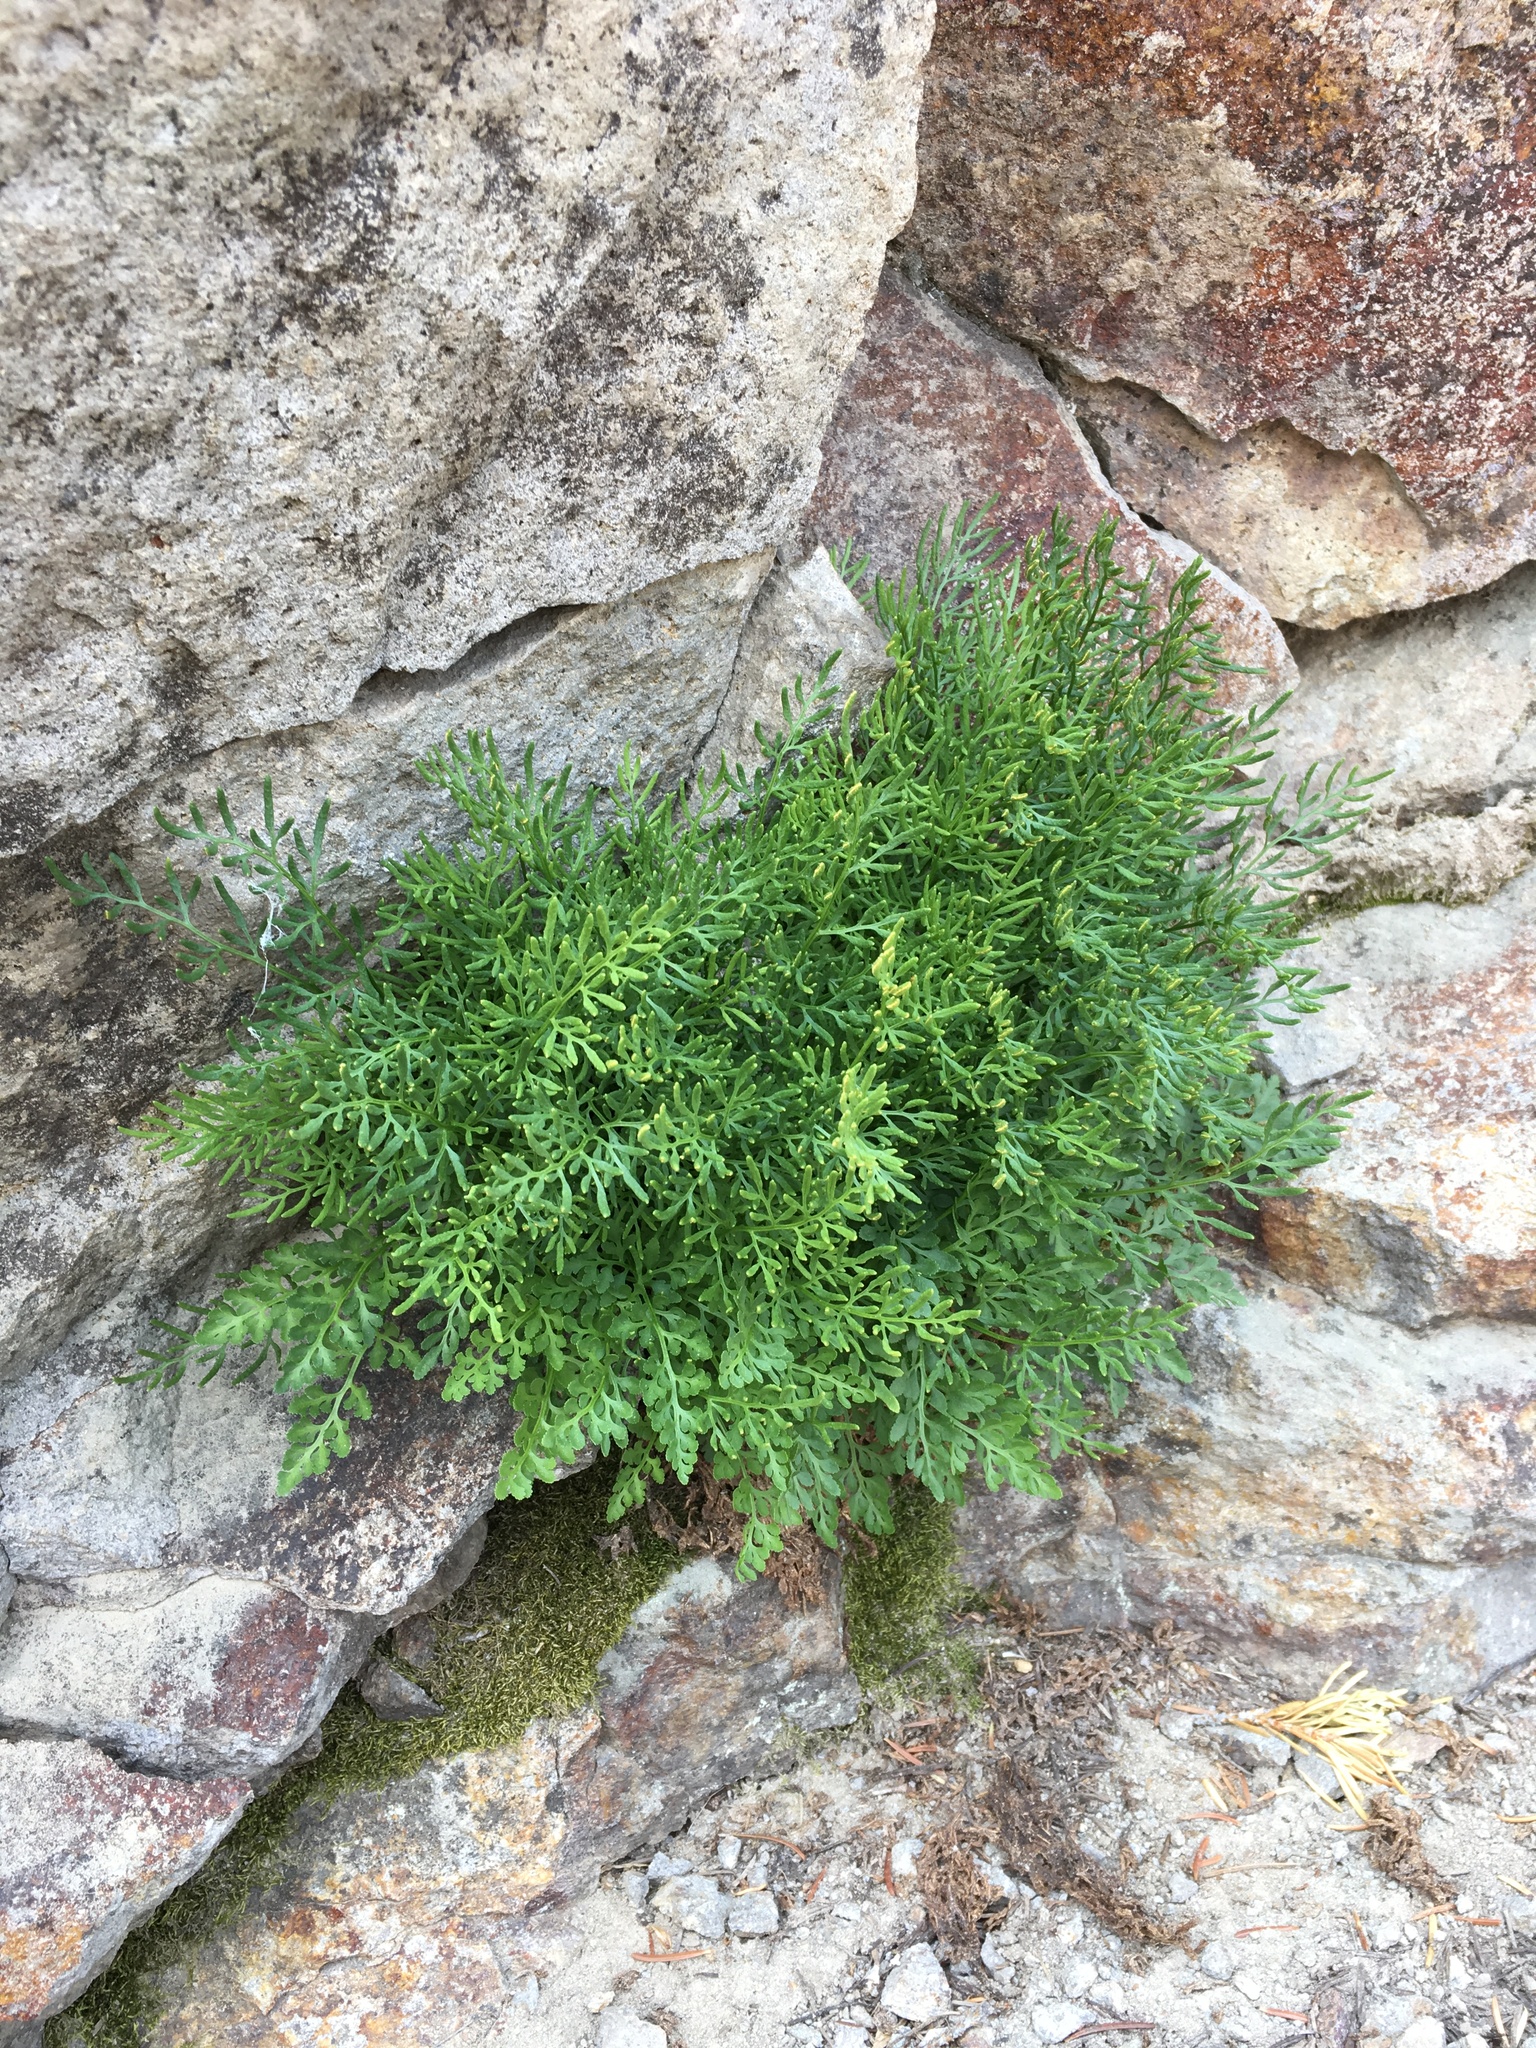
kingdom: Plantae
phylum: Tracheophyta
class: Polypodiopsida
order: Polypodiales
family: Pteridaceae
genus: Cryptogramma
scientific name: Cryptogramma cascadensis
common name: Cascade parsley fern
